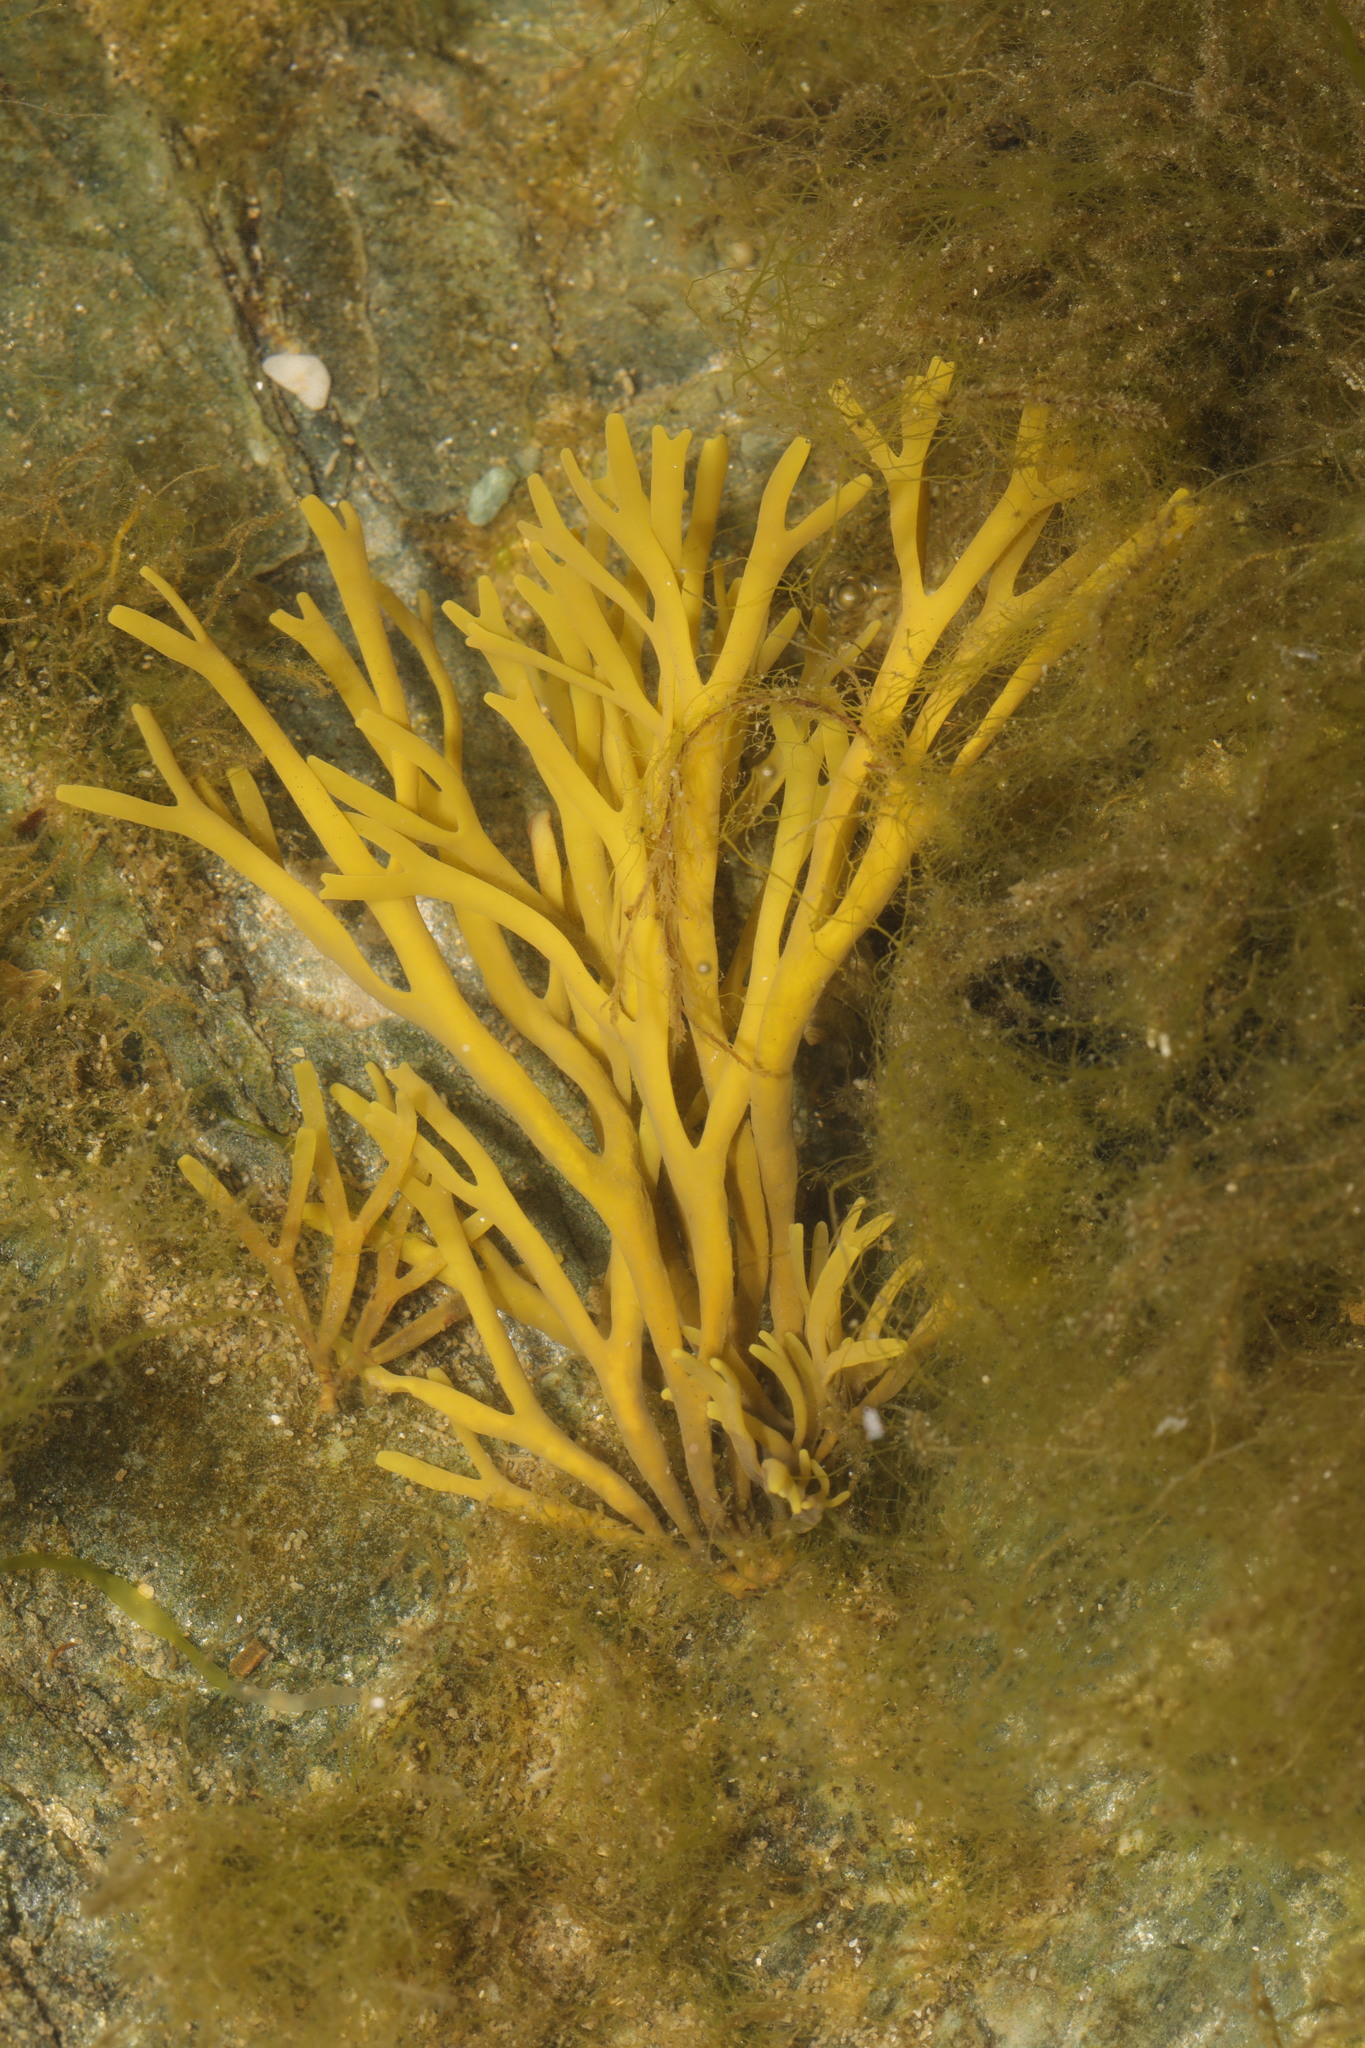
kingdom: Chromista
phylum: Ochrophyta
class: Phaeophyceae
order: Fucales
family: Fucaceae
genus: Pelvetia
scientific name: Pelvetia canaliculata
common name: Channelled wrack
